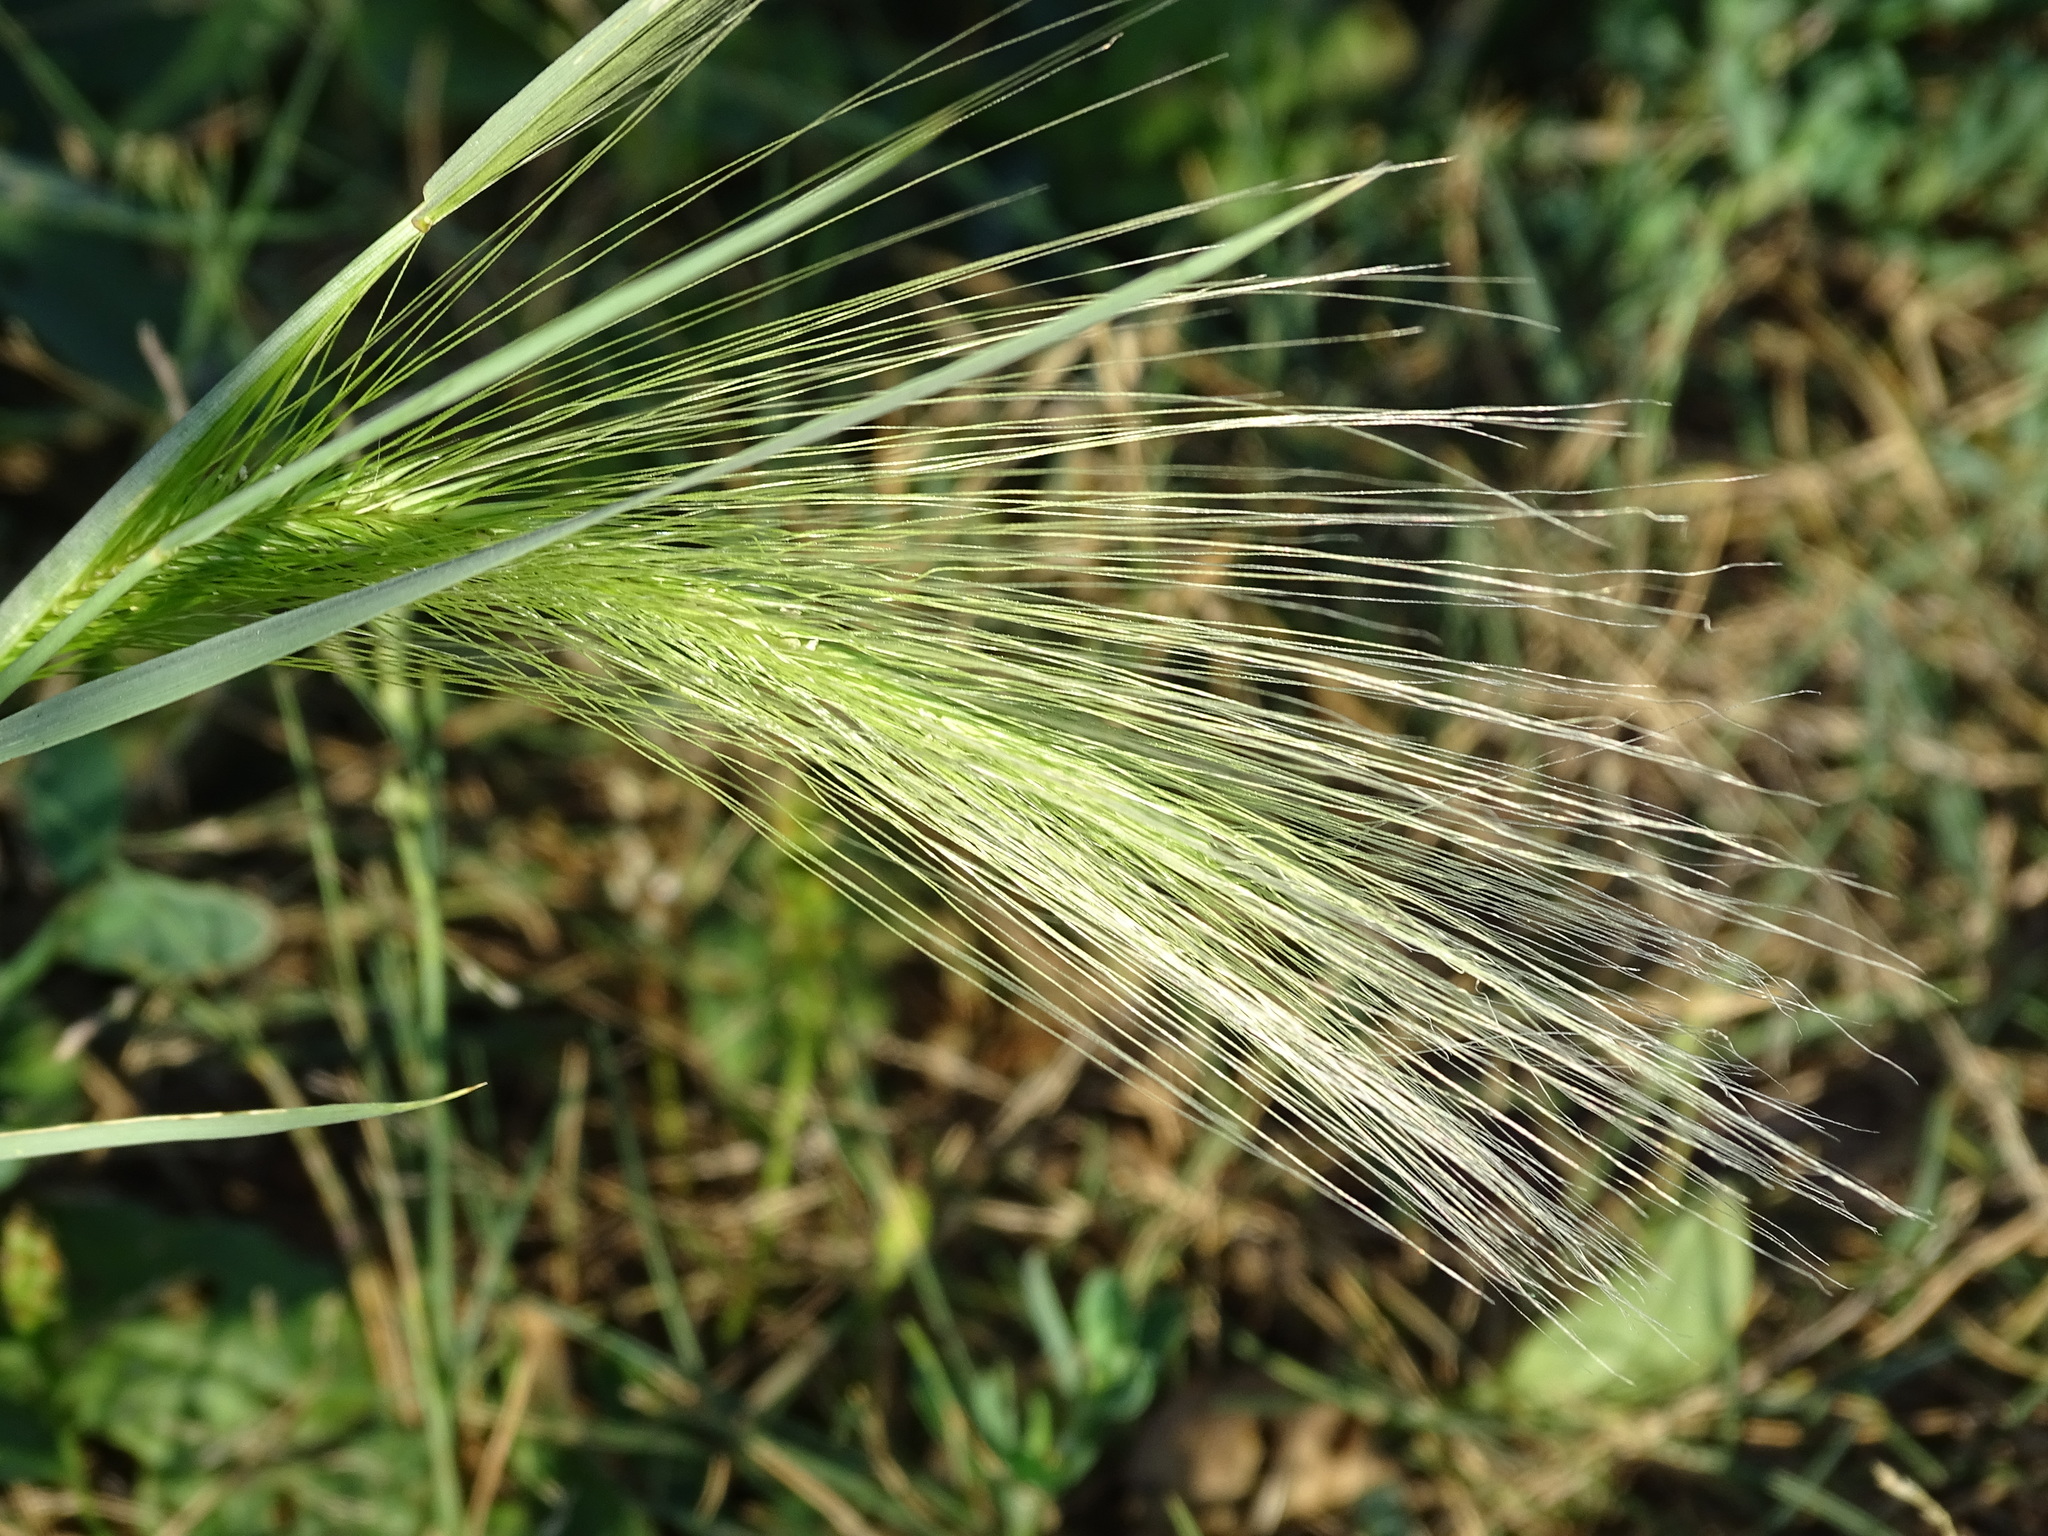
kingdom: Plantae
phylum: Tracheophyta
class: Liliopsida
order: Poales
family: Poaceae
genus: Hordeum
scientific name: Hordeum jubatum
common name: Foxtail barley
